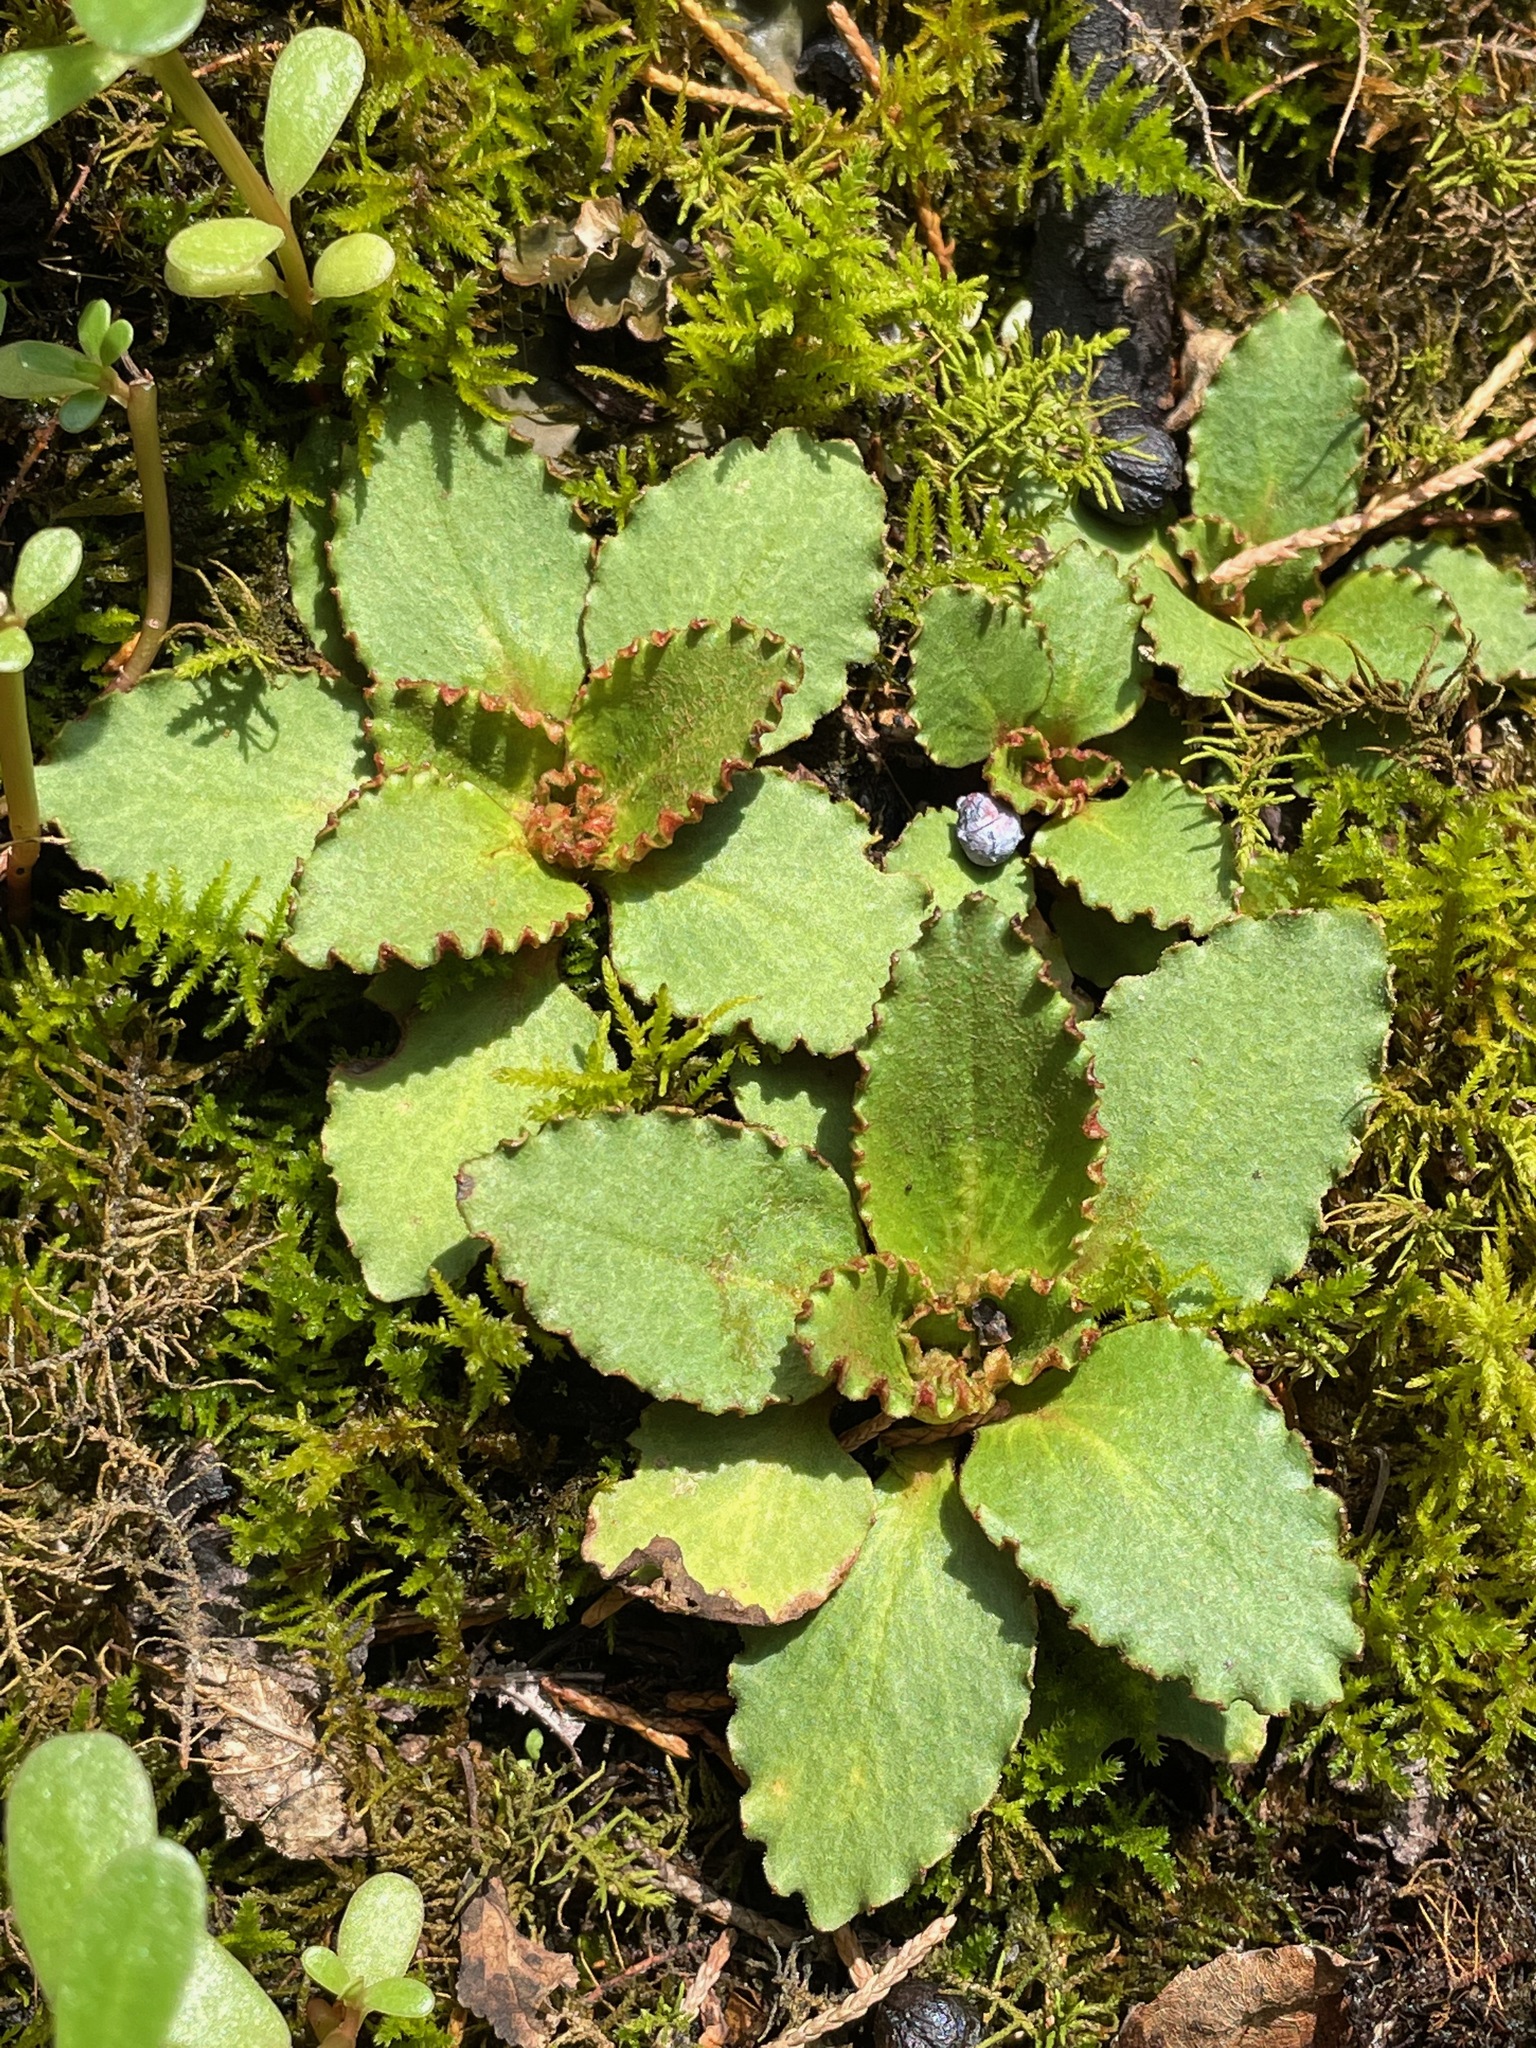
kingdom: Plantae
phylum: Tracheophyta
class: Magnoliopsida
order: Saxifragales
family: Saxifragaceae
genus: Micranthes
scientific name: Micranthes virginiensis
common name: Early saxifrage
